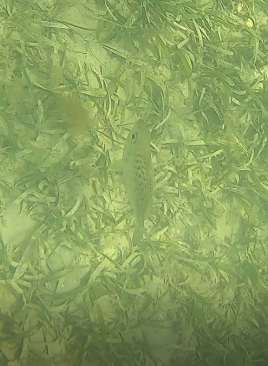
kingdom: Animalia
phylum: Chordata
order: Perciformes
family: Gerreidae
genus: Gerres
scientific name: Gerres cinereus
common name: Hedow
